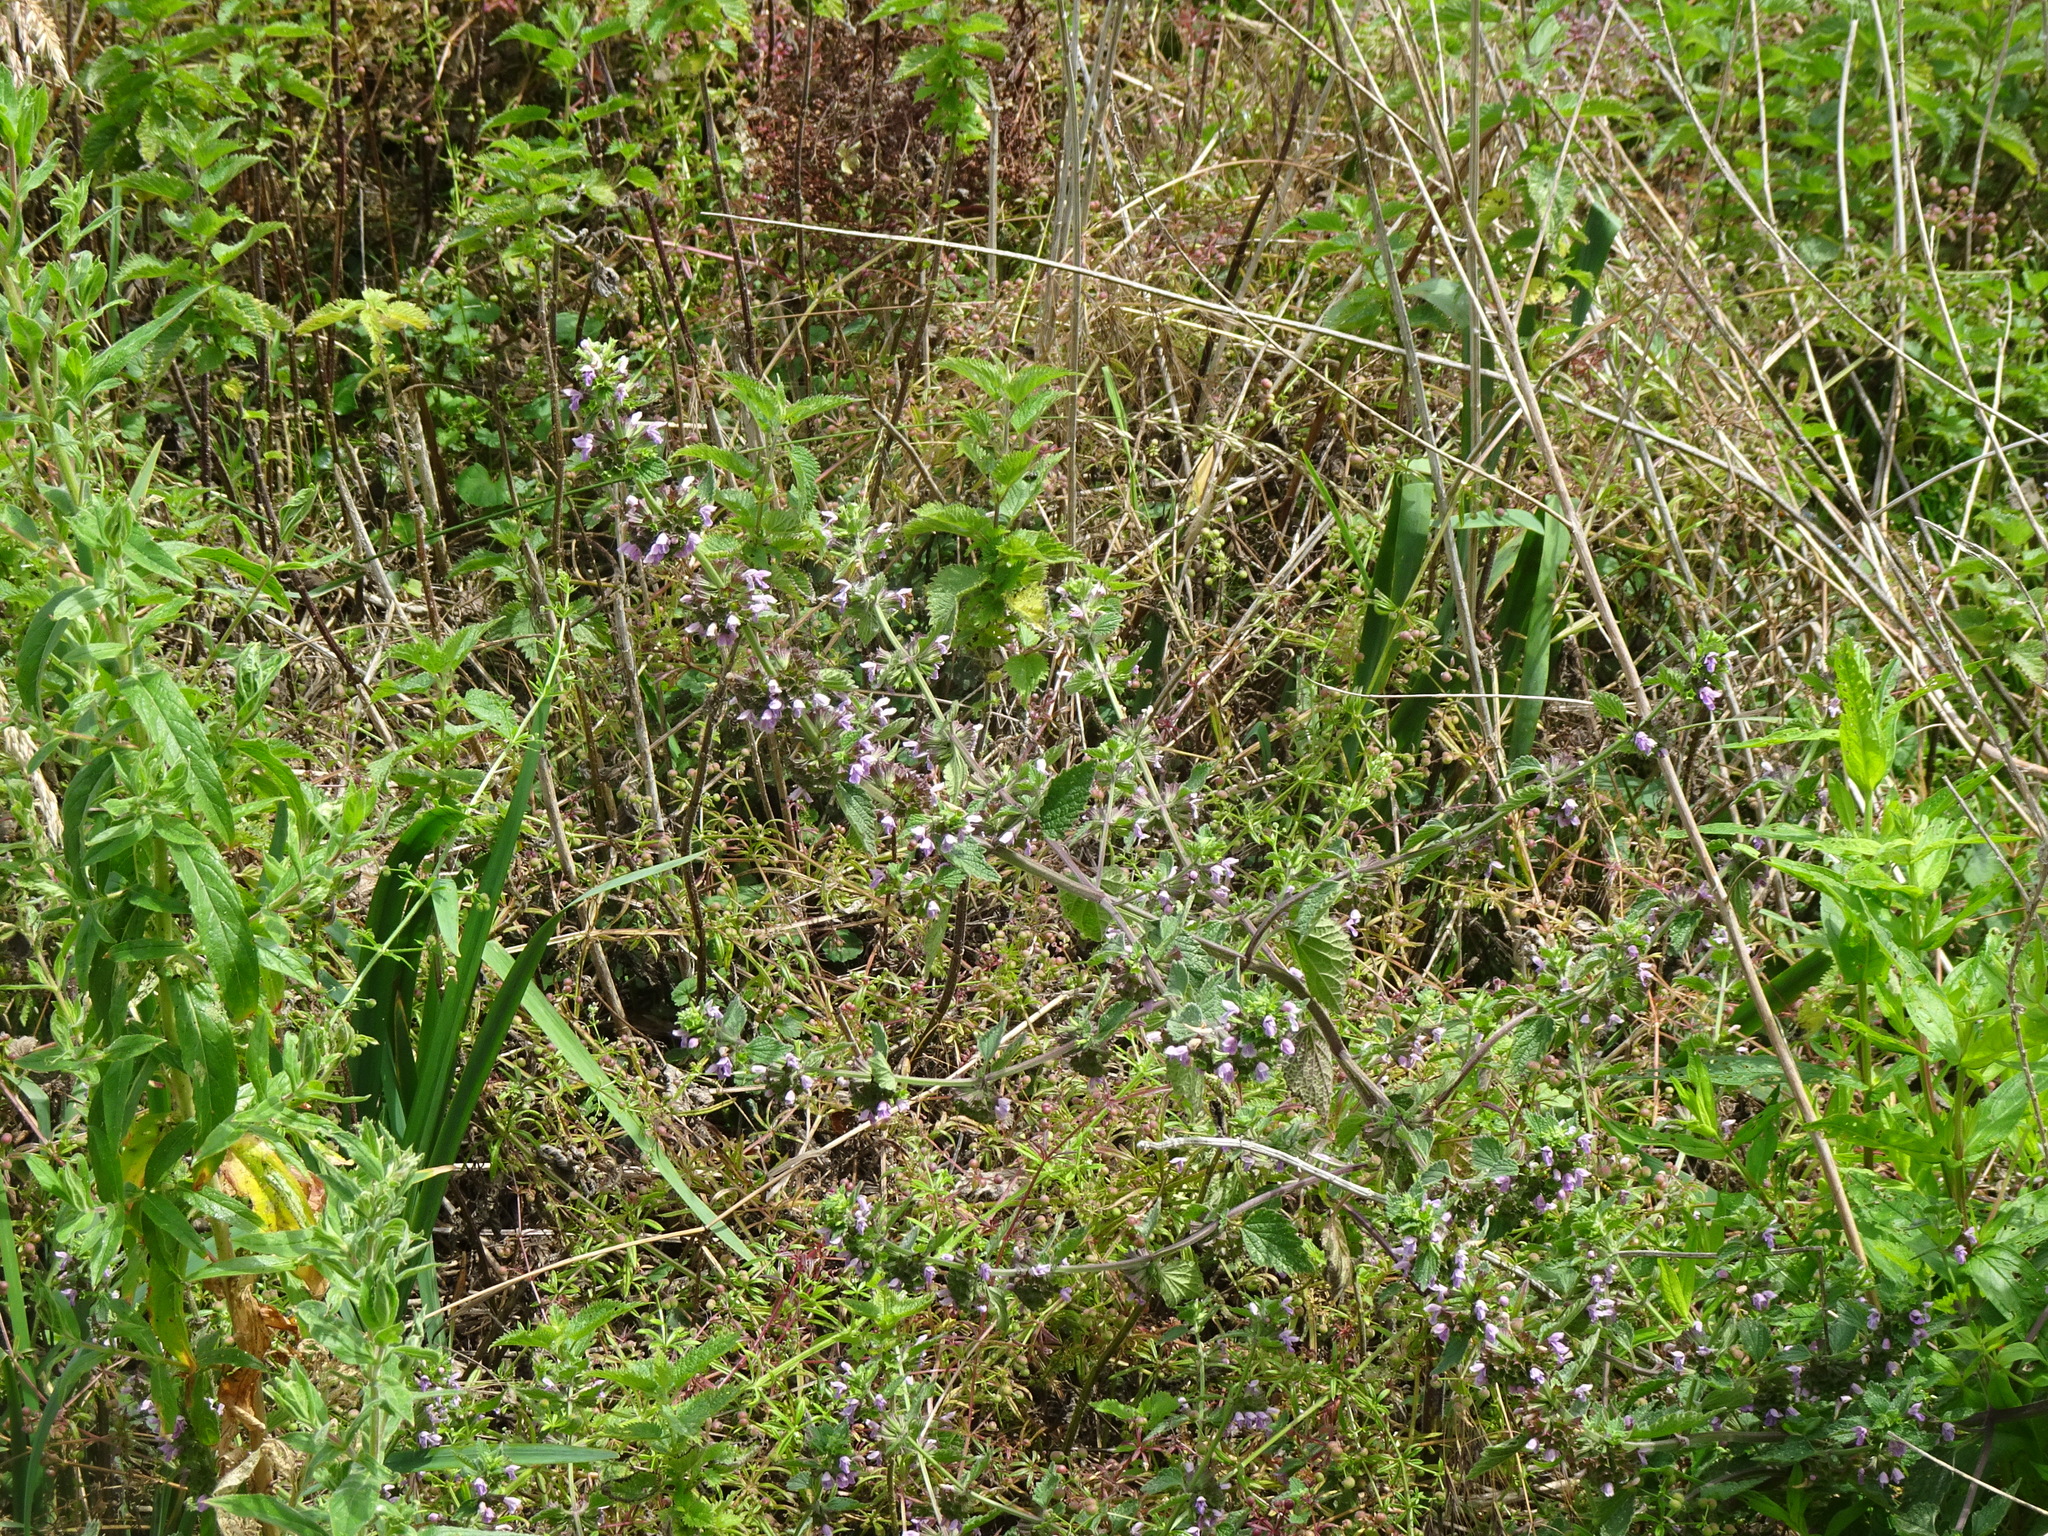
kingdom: Plantae
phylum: Tracheophyta
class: Magnoliopsida
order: Lamiales
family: Lamiaceae
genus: Ballota
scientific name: Ballota nigra
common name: Black horehound
